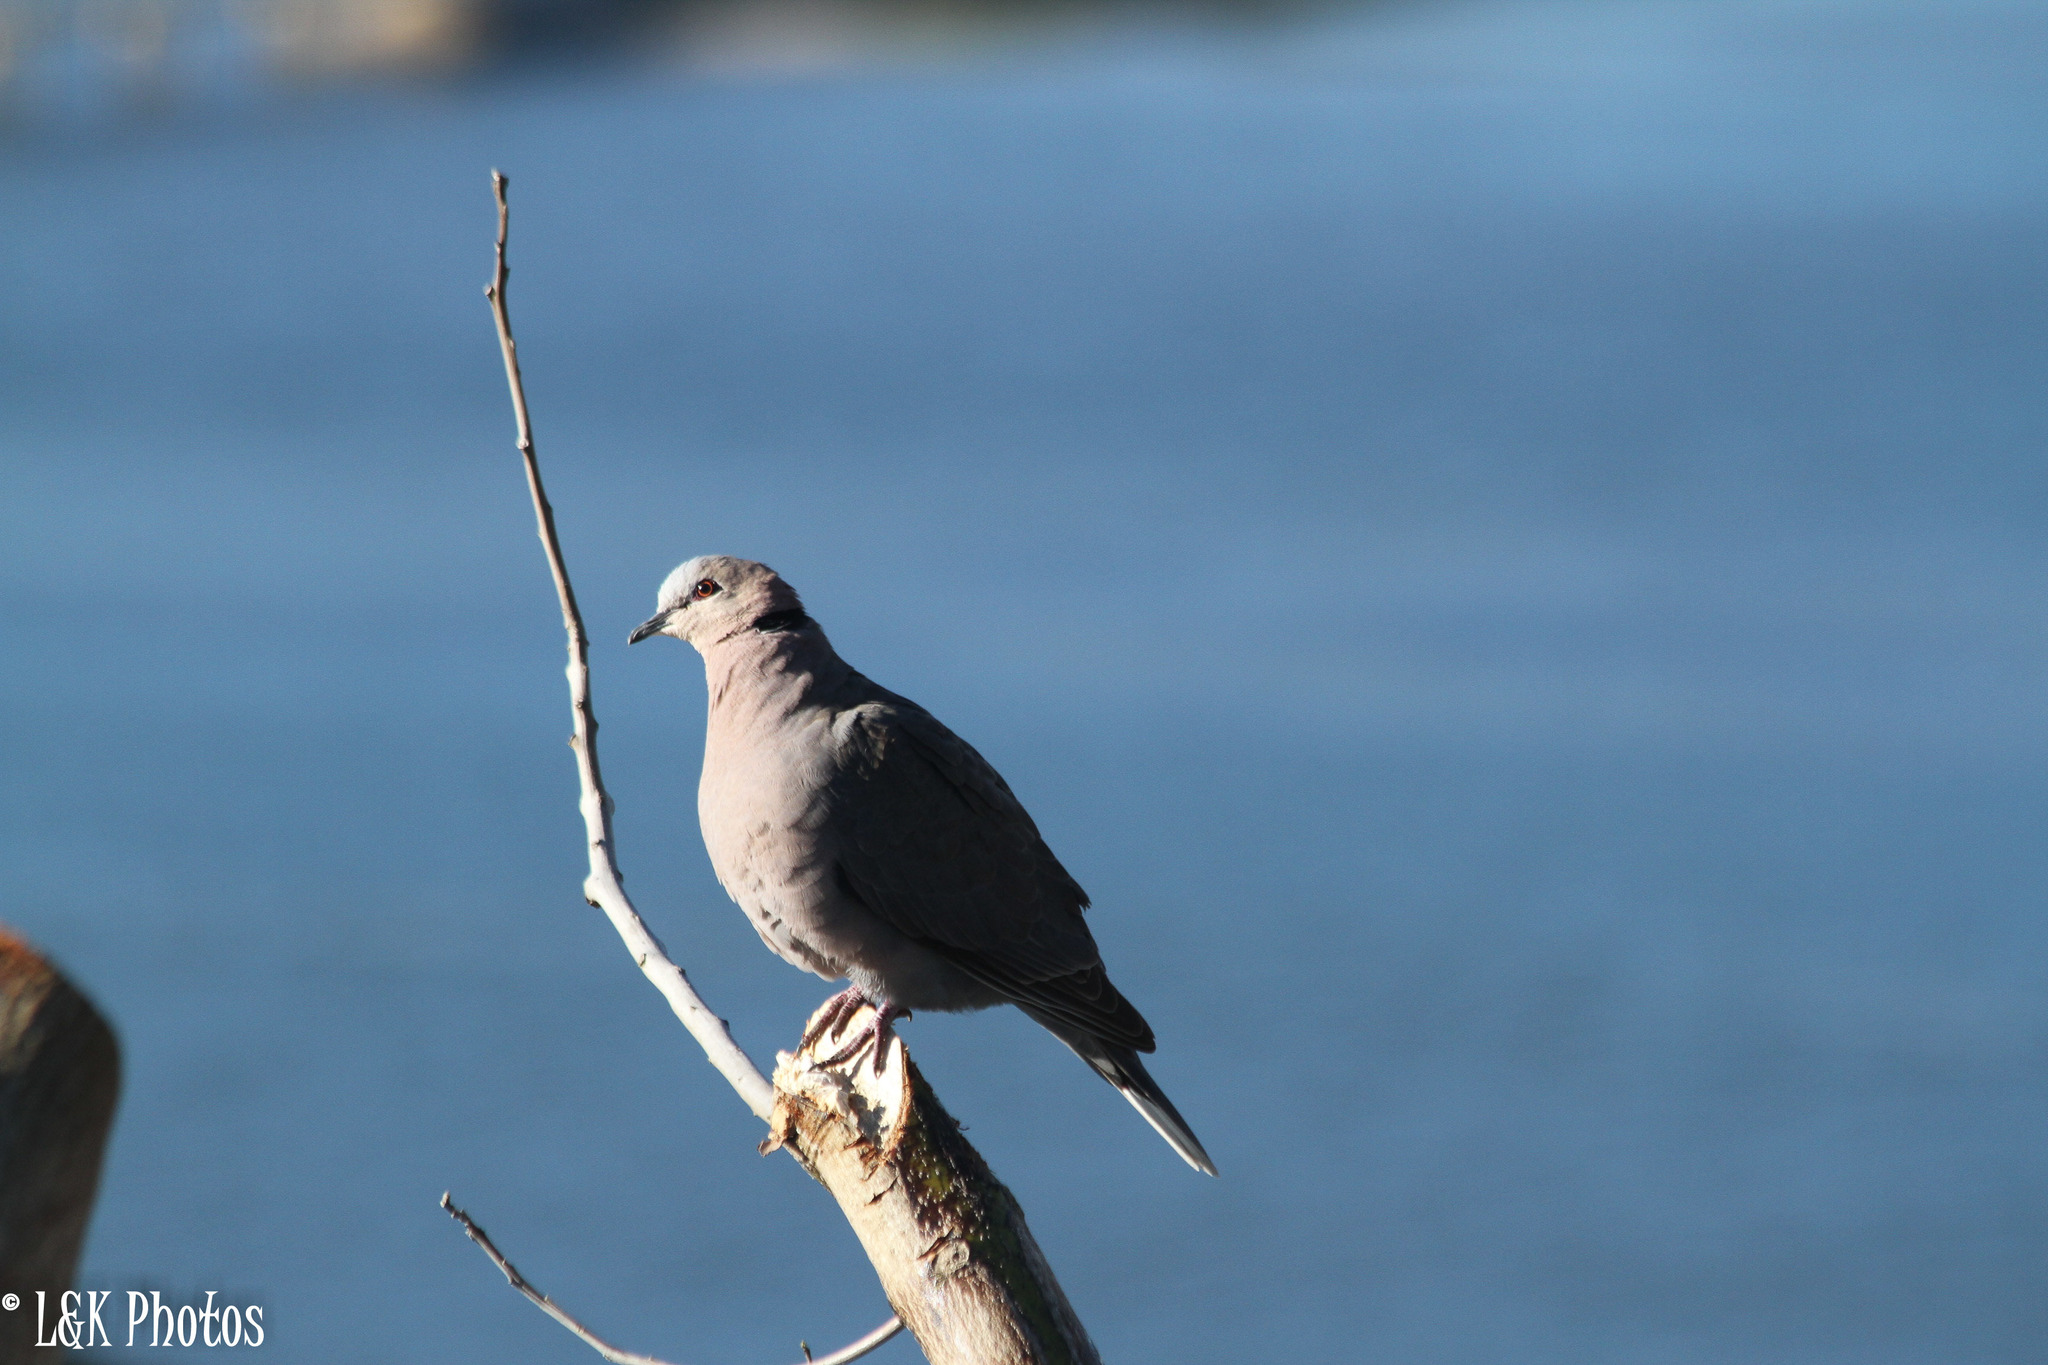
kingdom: Animalia
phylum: Chordata
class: Aves
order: Columbiformes
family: Columbidae
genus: Streptopelia
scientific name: Streptopelia semitorquata
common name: Red-eyed dove
